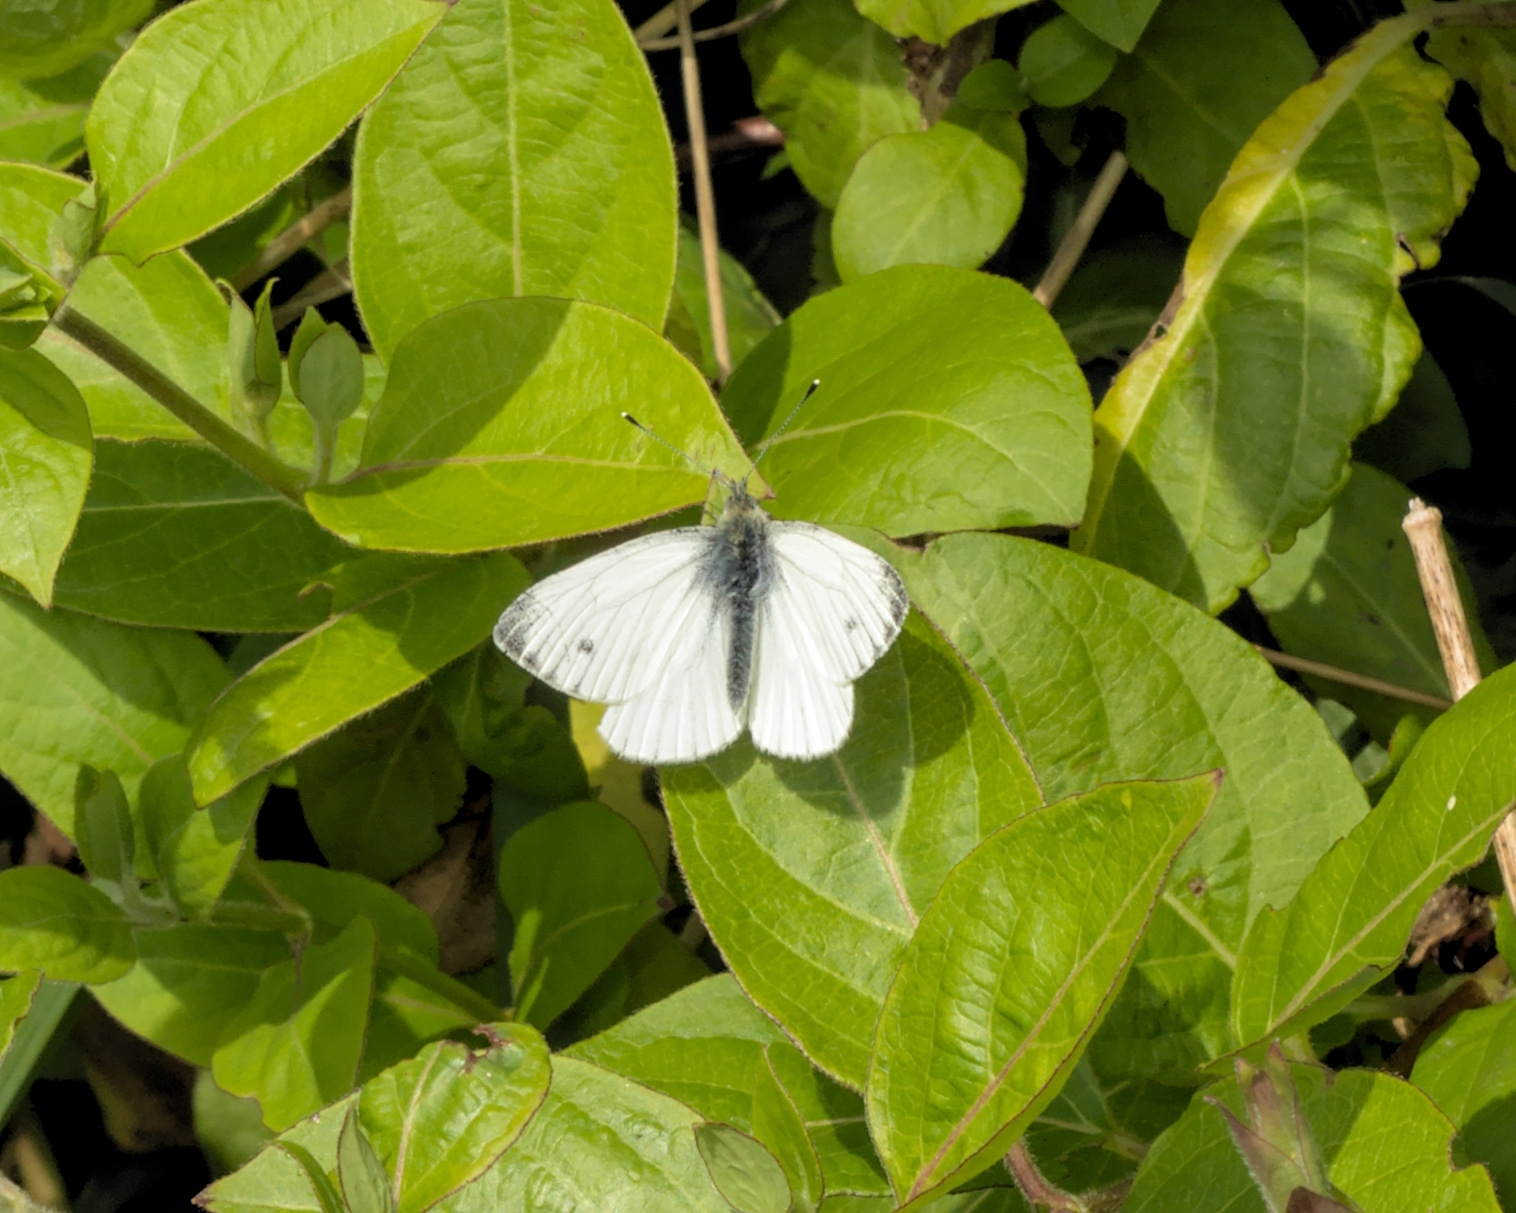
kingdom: Animalia
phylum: Arthropoda
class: Insecta
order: Lepidoptera
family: Pieridae
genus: Pieris
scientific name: Pieris napi
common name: Green-veined white
